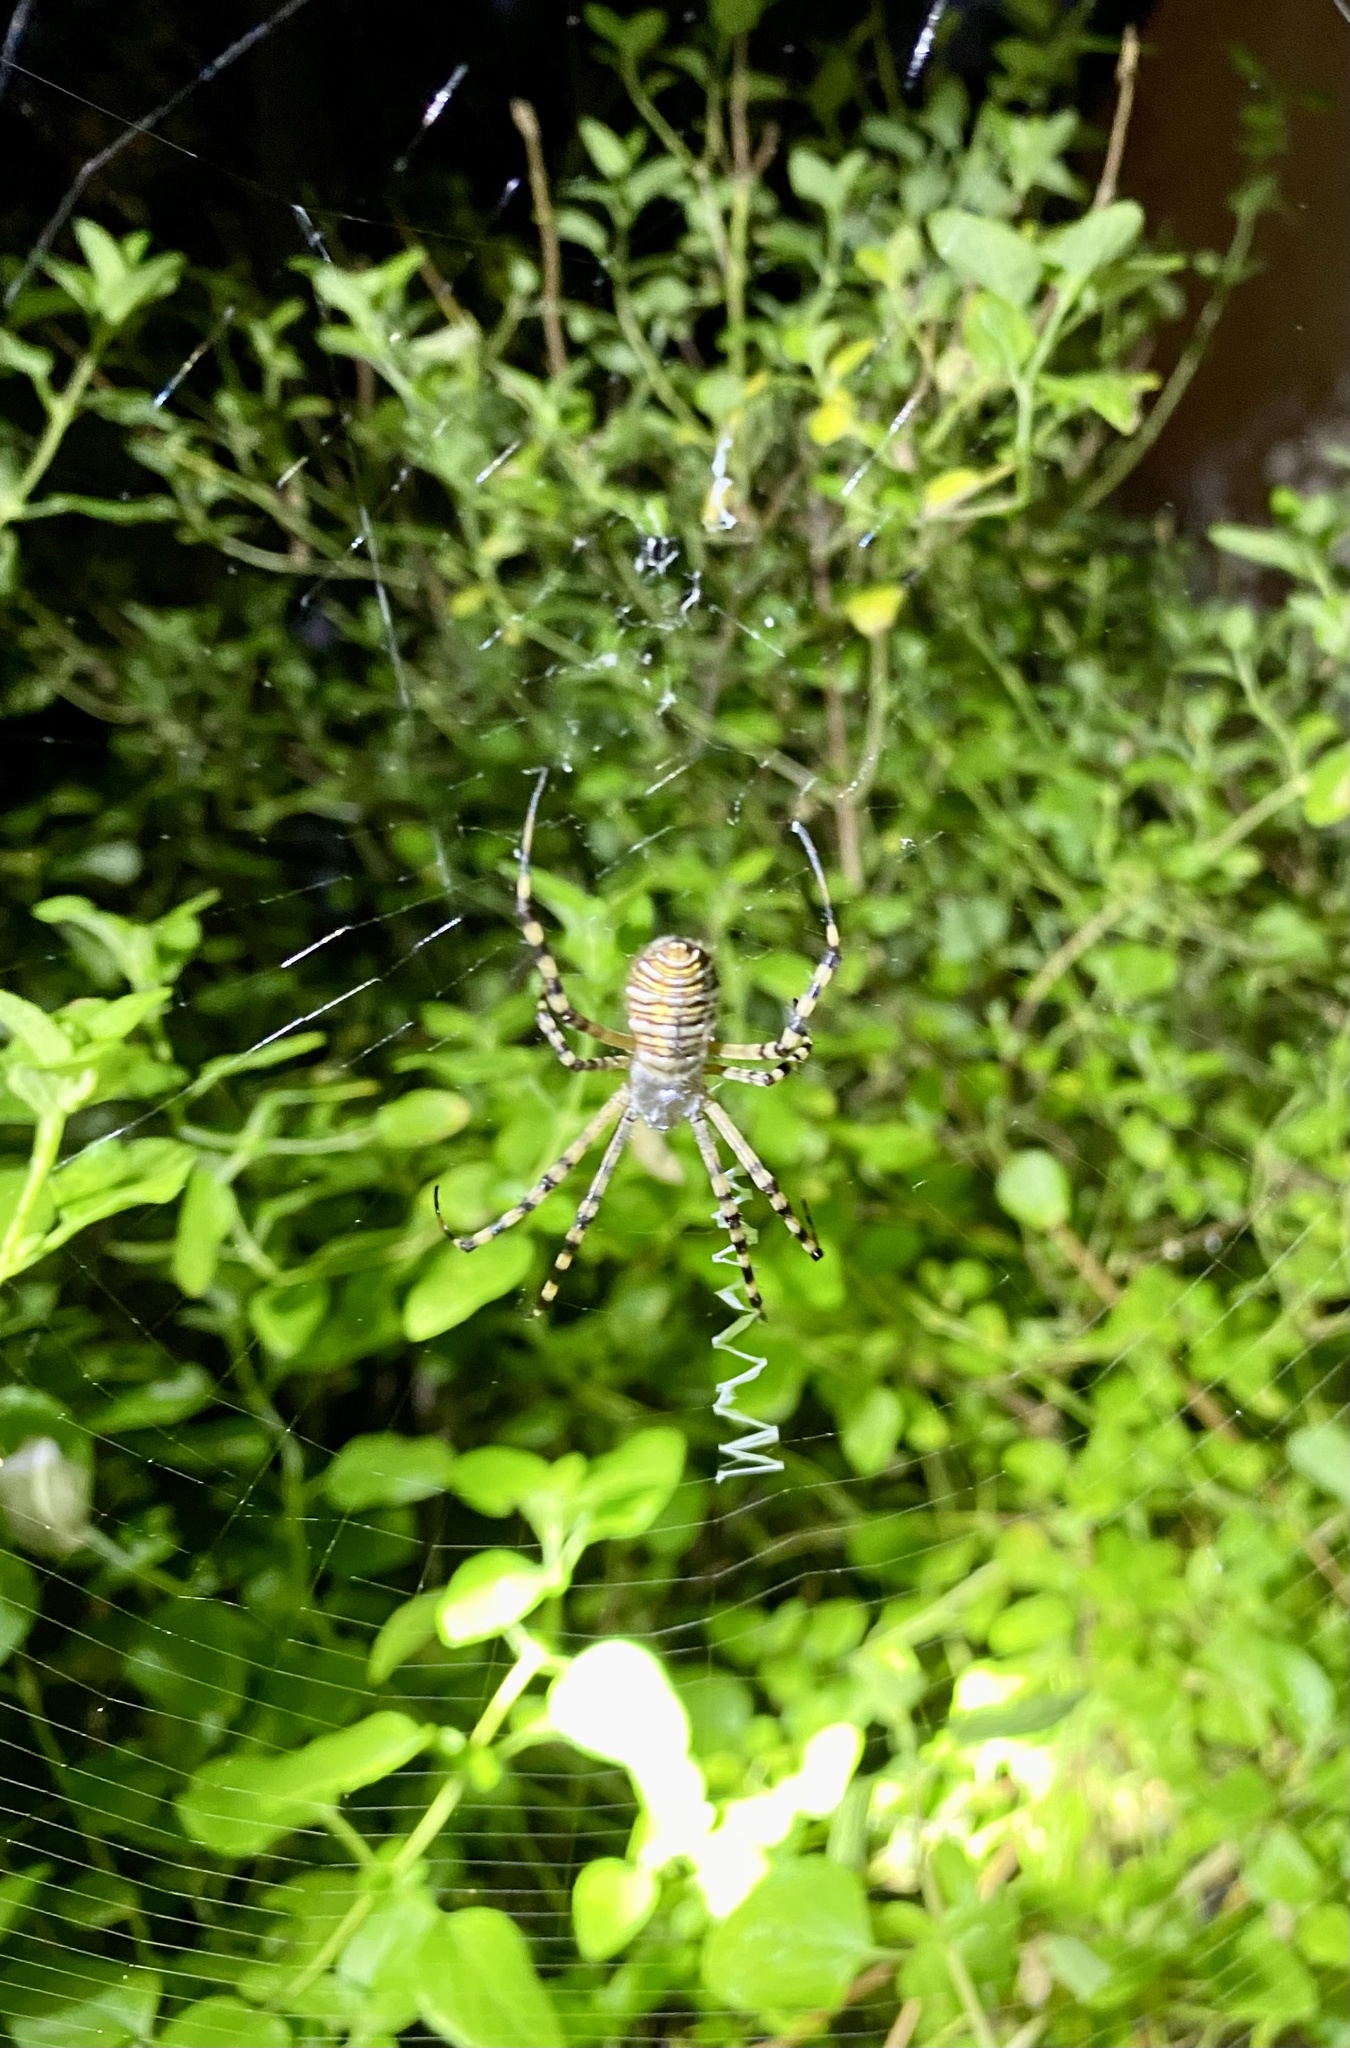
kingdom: Animalia
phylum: Arthropoda
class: Arachnida
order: Araneae
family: Araneidae
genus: Argiope
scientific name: Argiope trifasciata
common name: Banded garden spider
